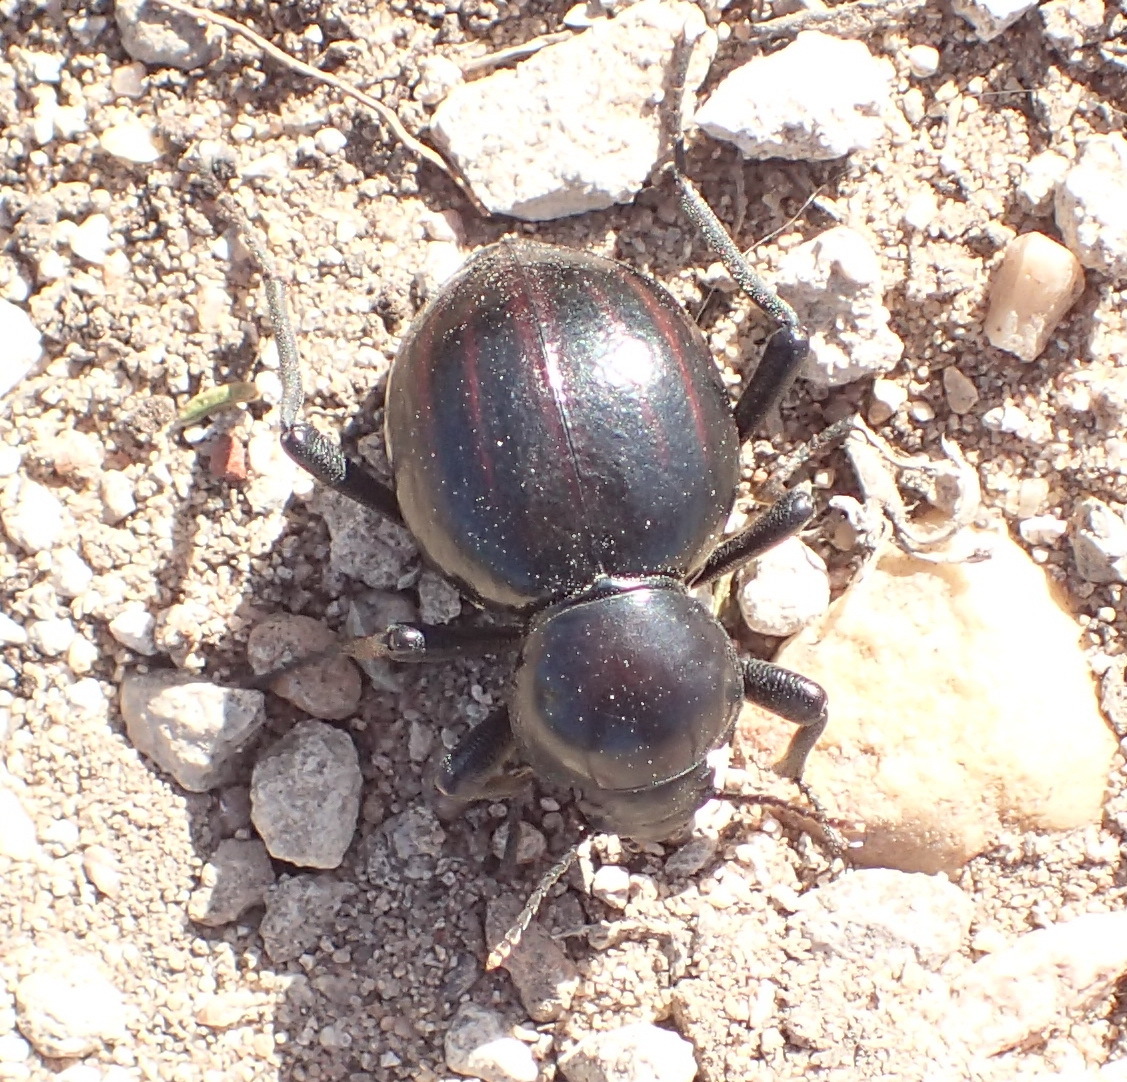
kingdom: Animalia
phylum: Arthropoda
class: Insecta
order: Coleoptera
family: Tenebrionidae
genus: Mariazofia
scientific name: Mariazofia
